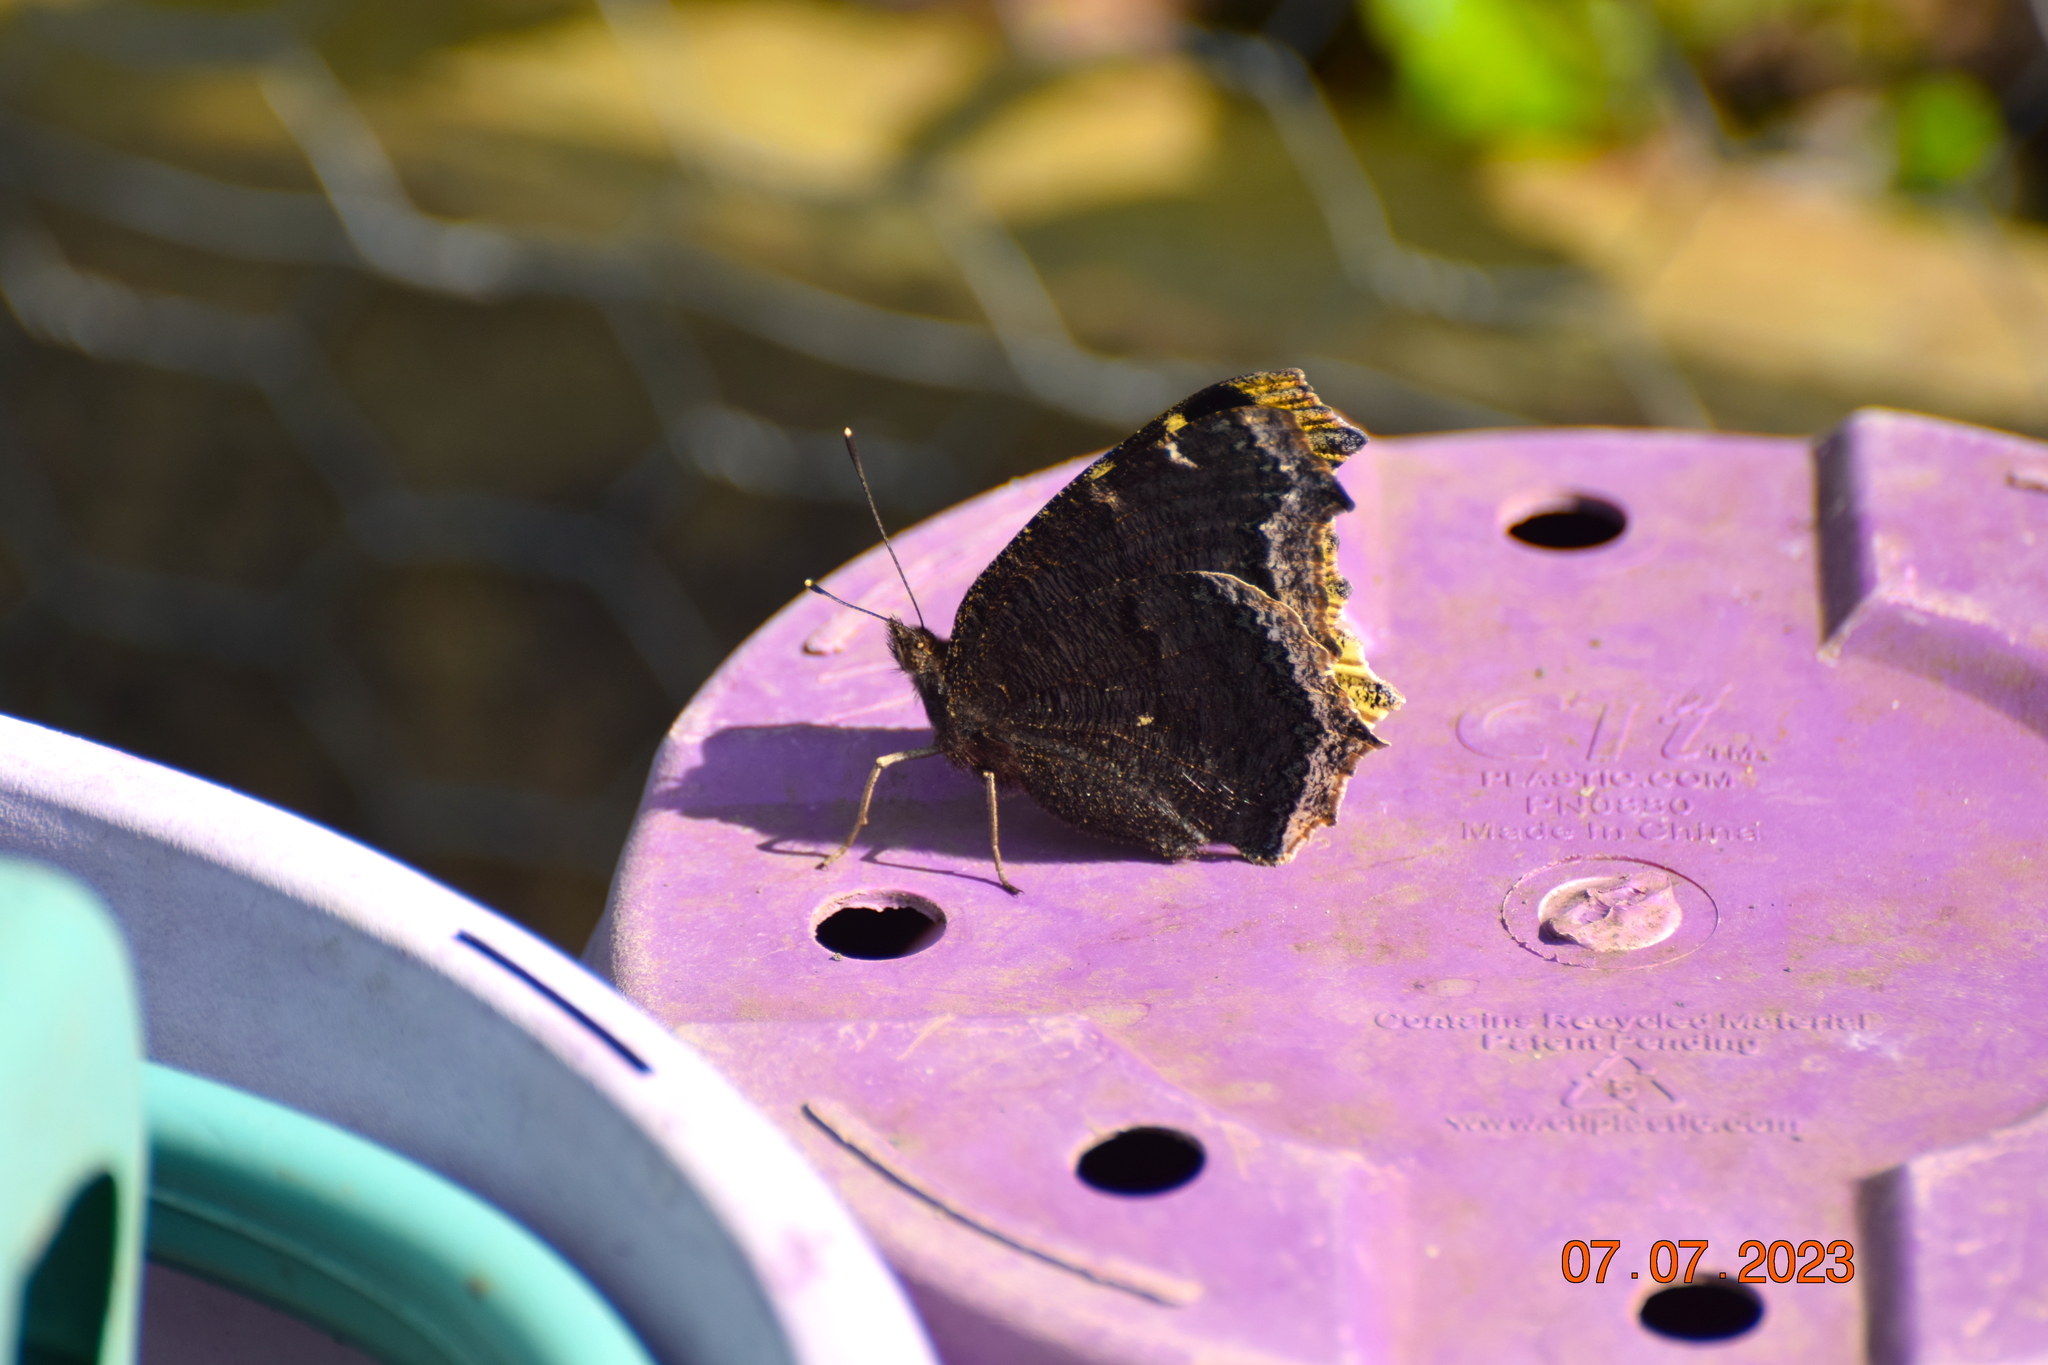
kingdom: Animalia
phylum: Arthropoda
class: Insecta
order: Lepidoptera
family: Nymphalidae
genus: Nymphalis
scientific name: Nymphalis antiopa
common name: Camberwell beauty
